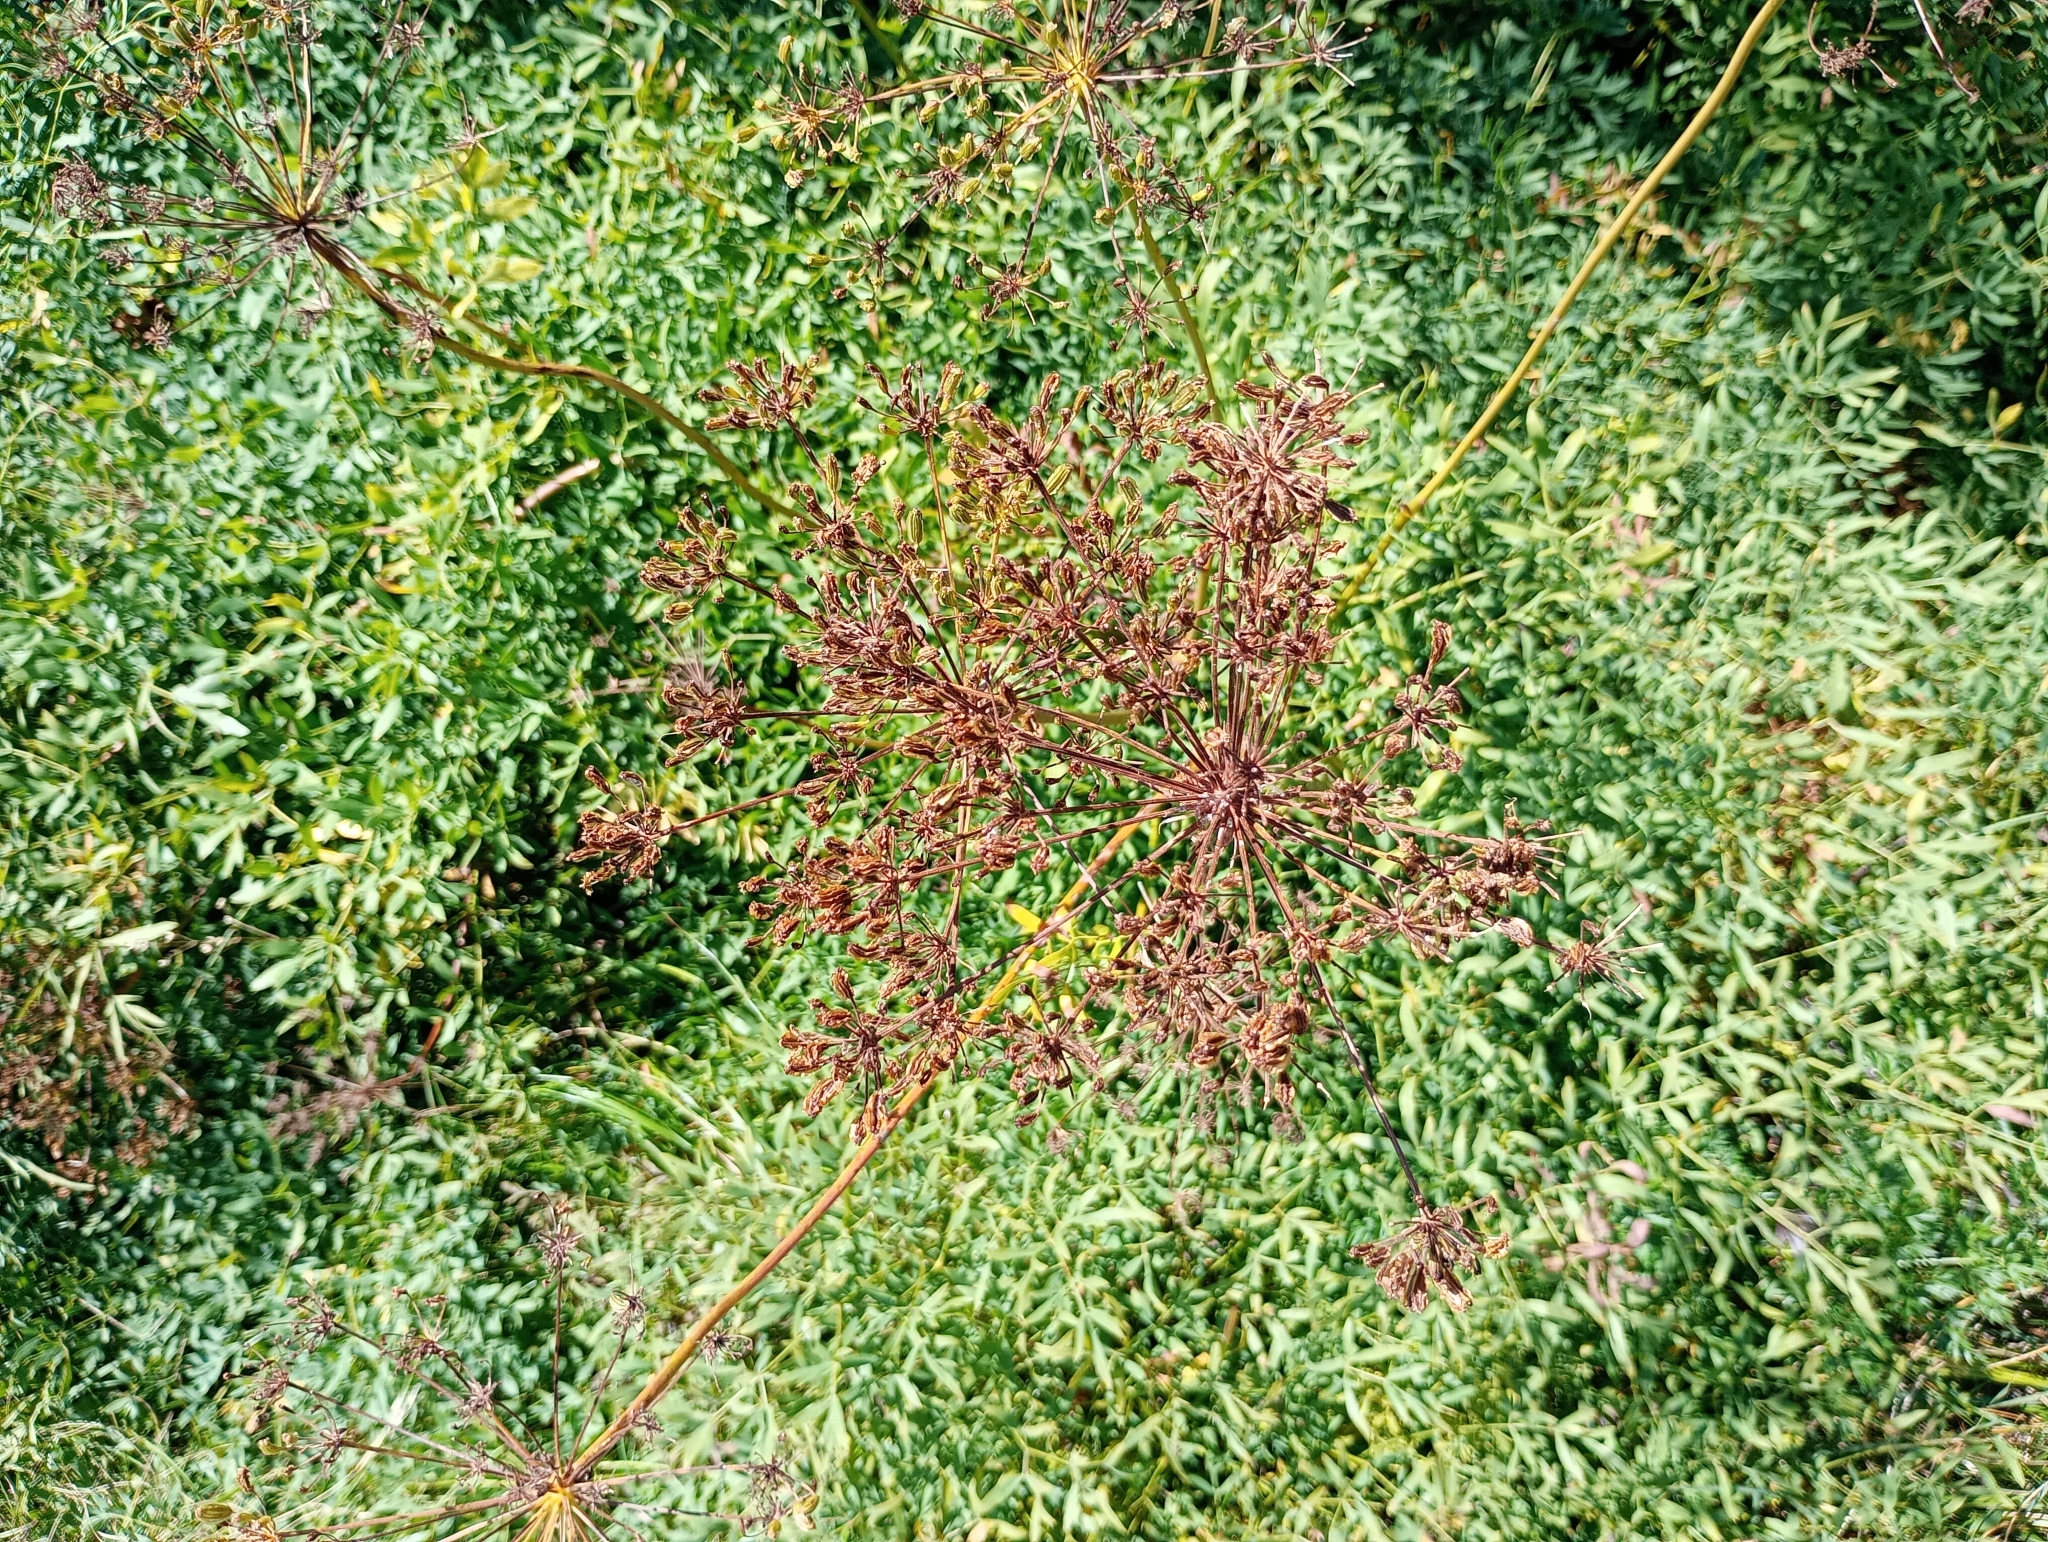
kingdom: Plantae
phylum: Tracheophyta
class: Magnoliopsida
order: Apiales
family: Apiaceae
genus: Siler
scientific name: Siler montanum
